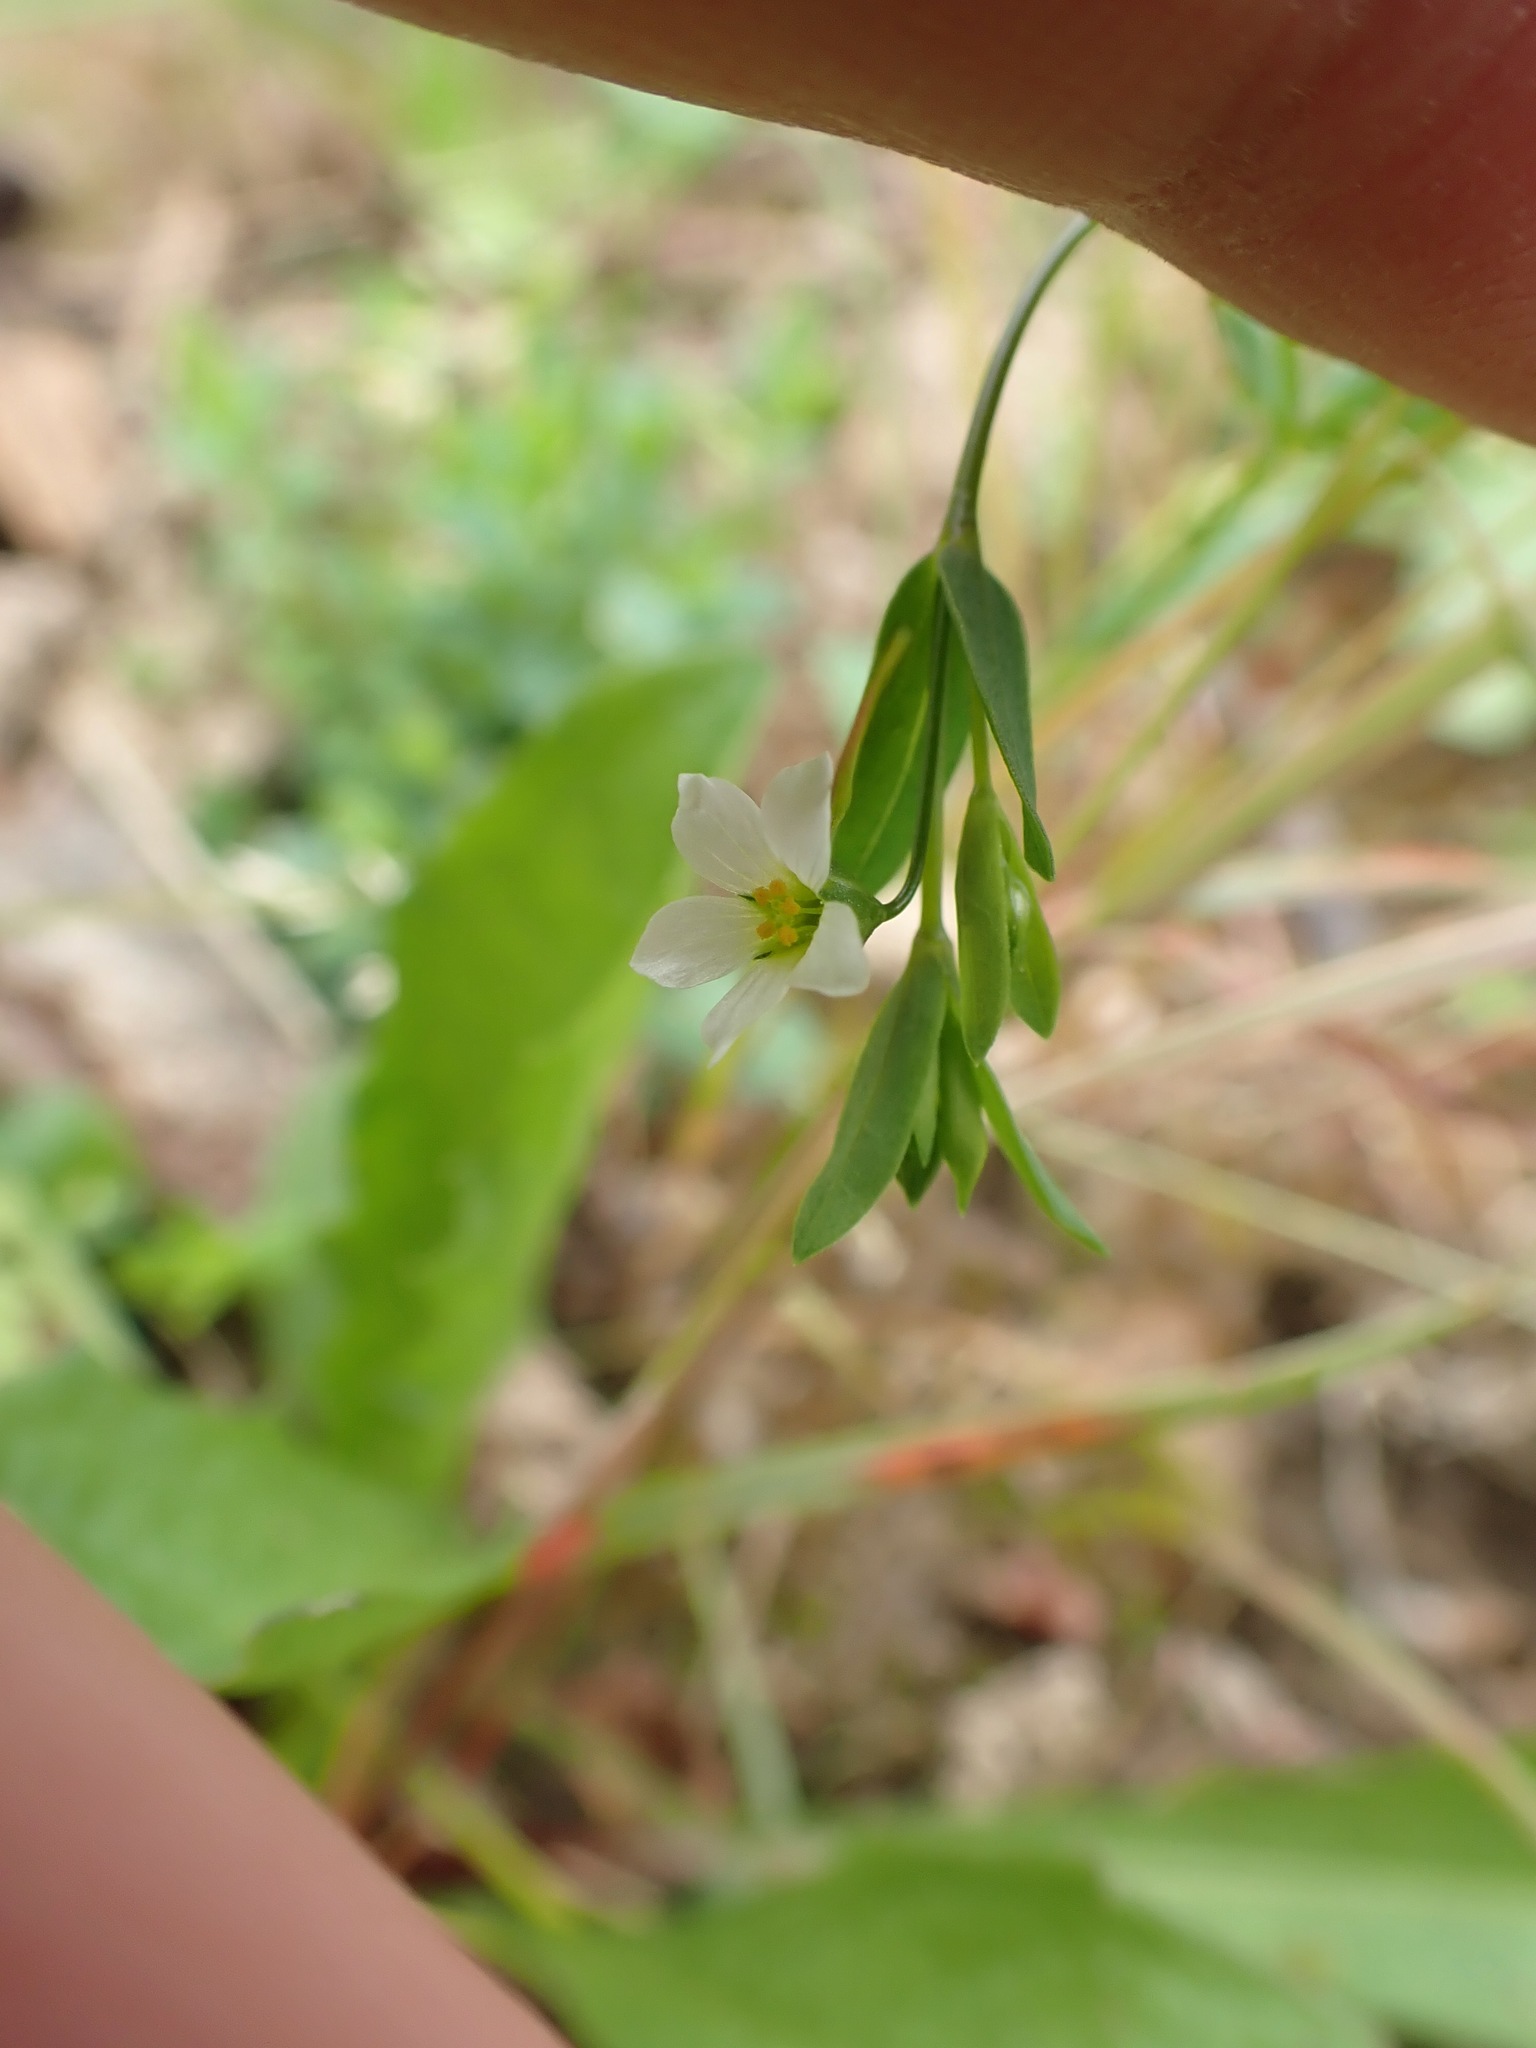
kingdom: Plantae
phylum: Tracheophyta
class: Magnoliopsida
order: Malpighiales
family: Linaceae
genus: Linum
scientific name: Linum catharticum
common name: Fairy flax
